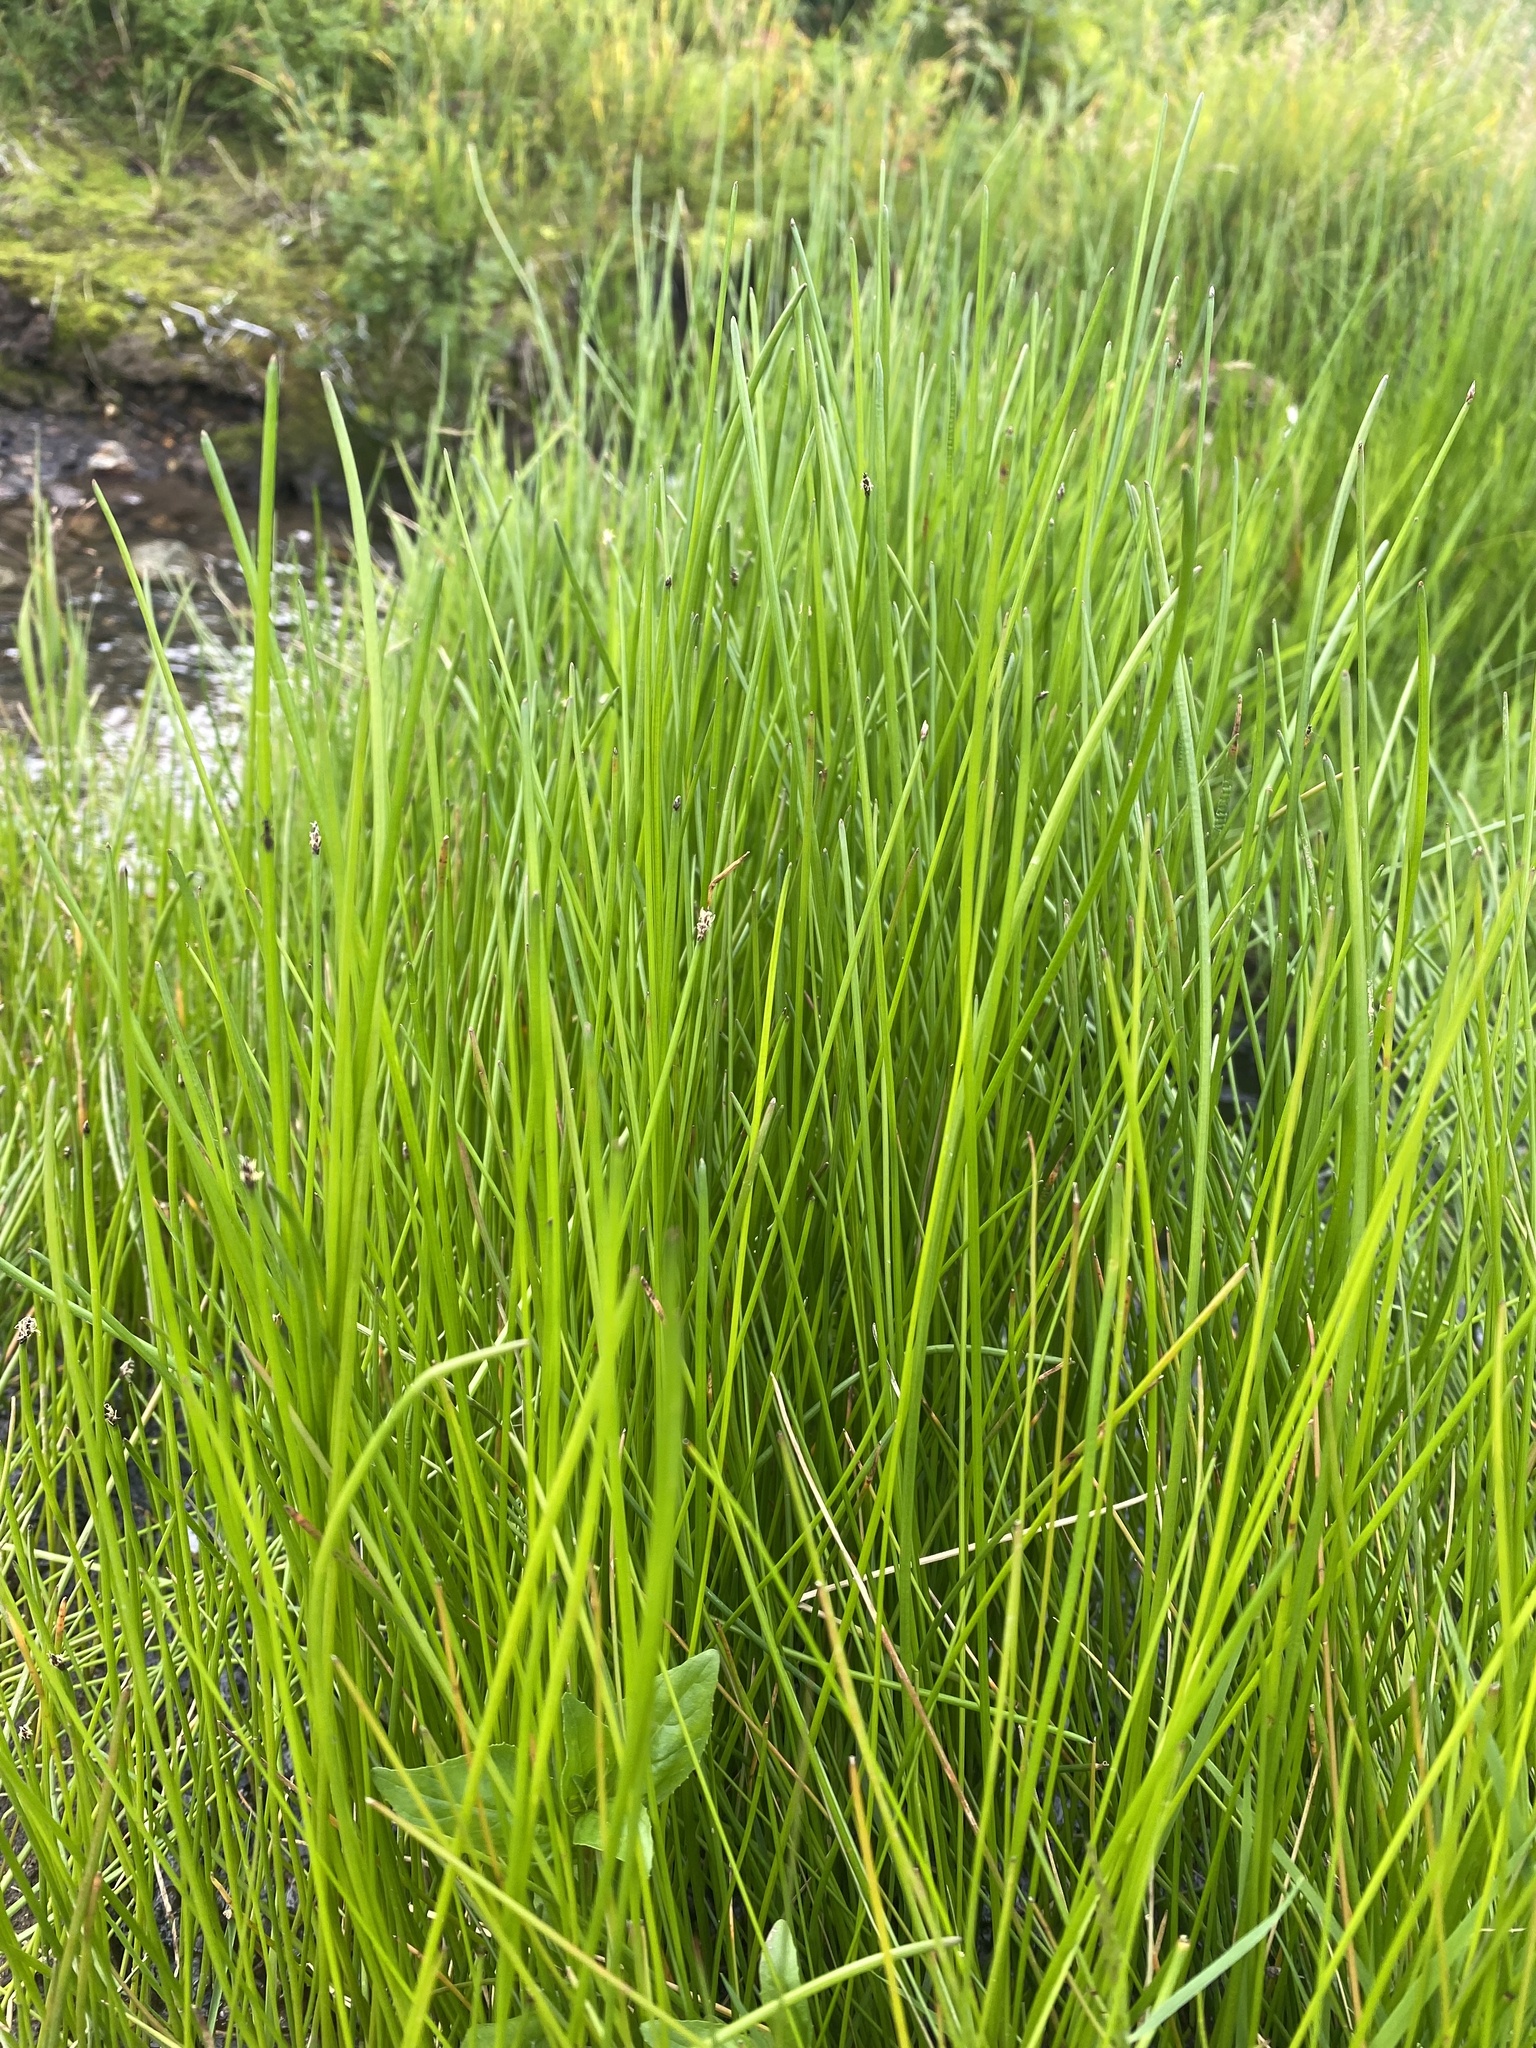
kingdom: Plantae
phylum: Tracheophyta
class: Liliopsida
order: Poales
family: Cyperaceae
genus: Eleocharis
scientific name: Eleocharis palustris
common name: Common spike-rush
